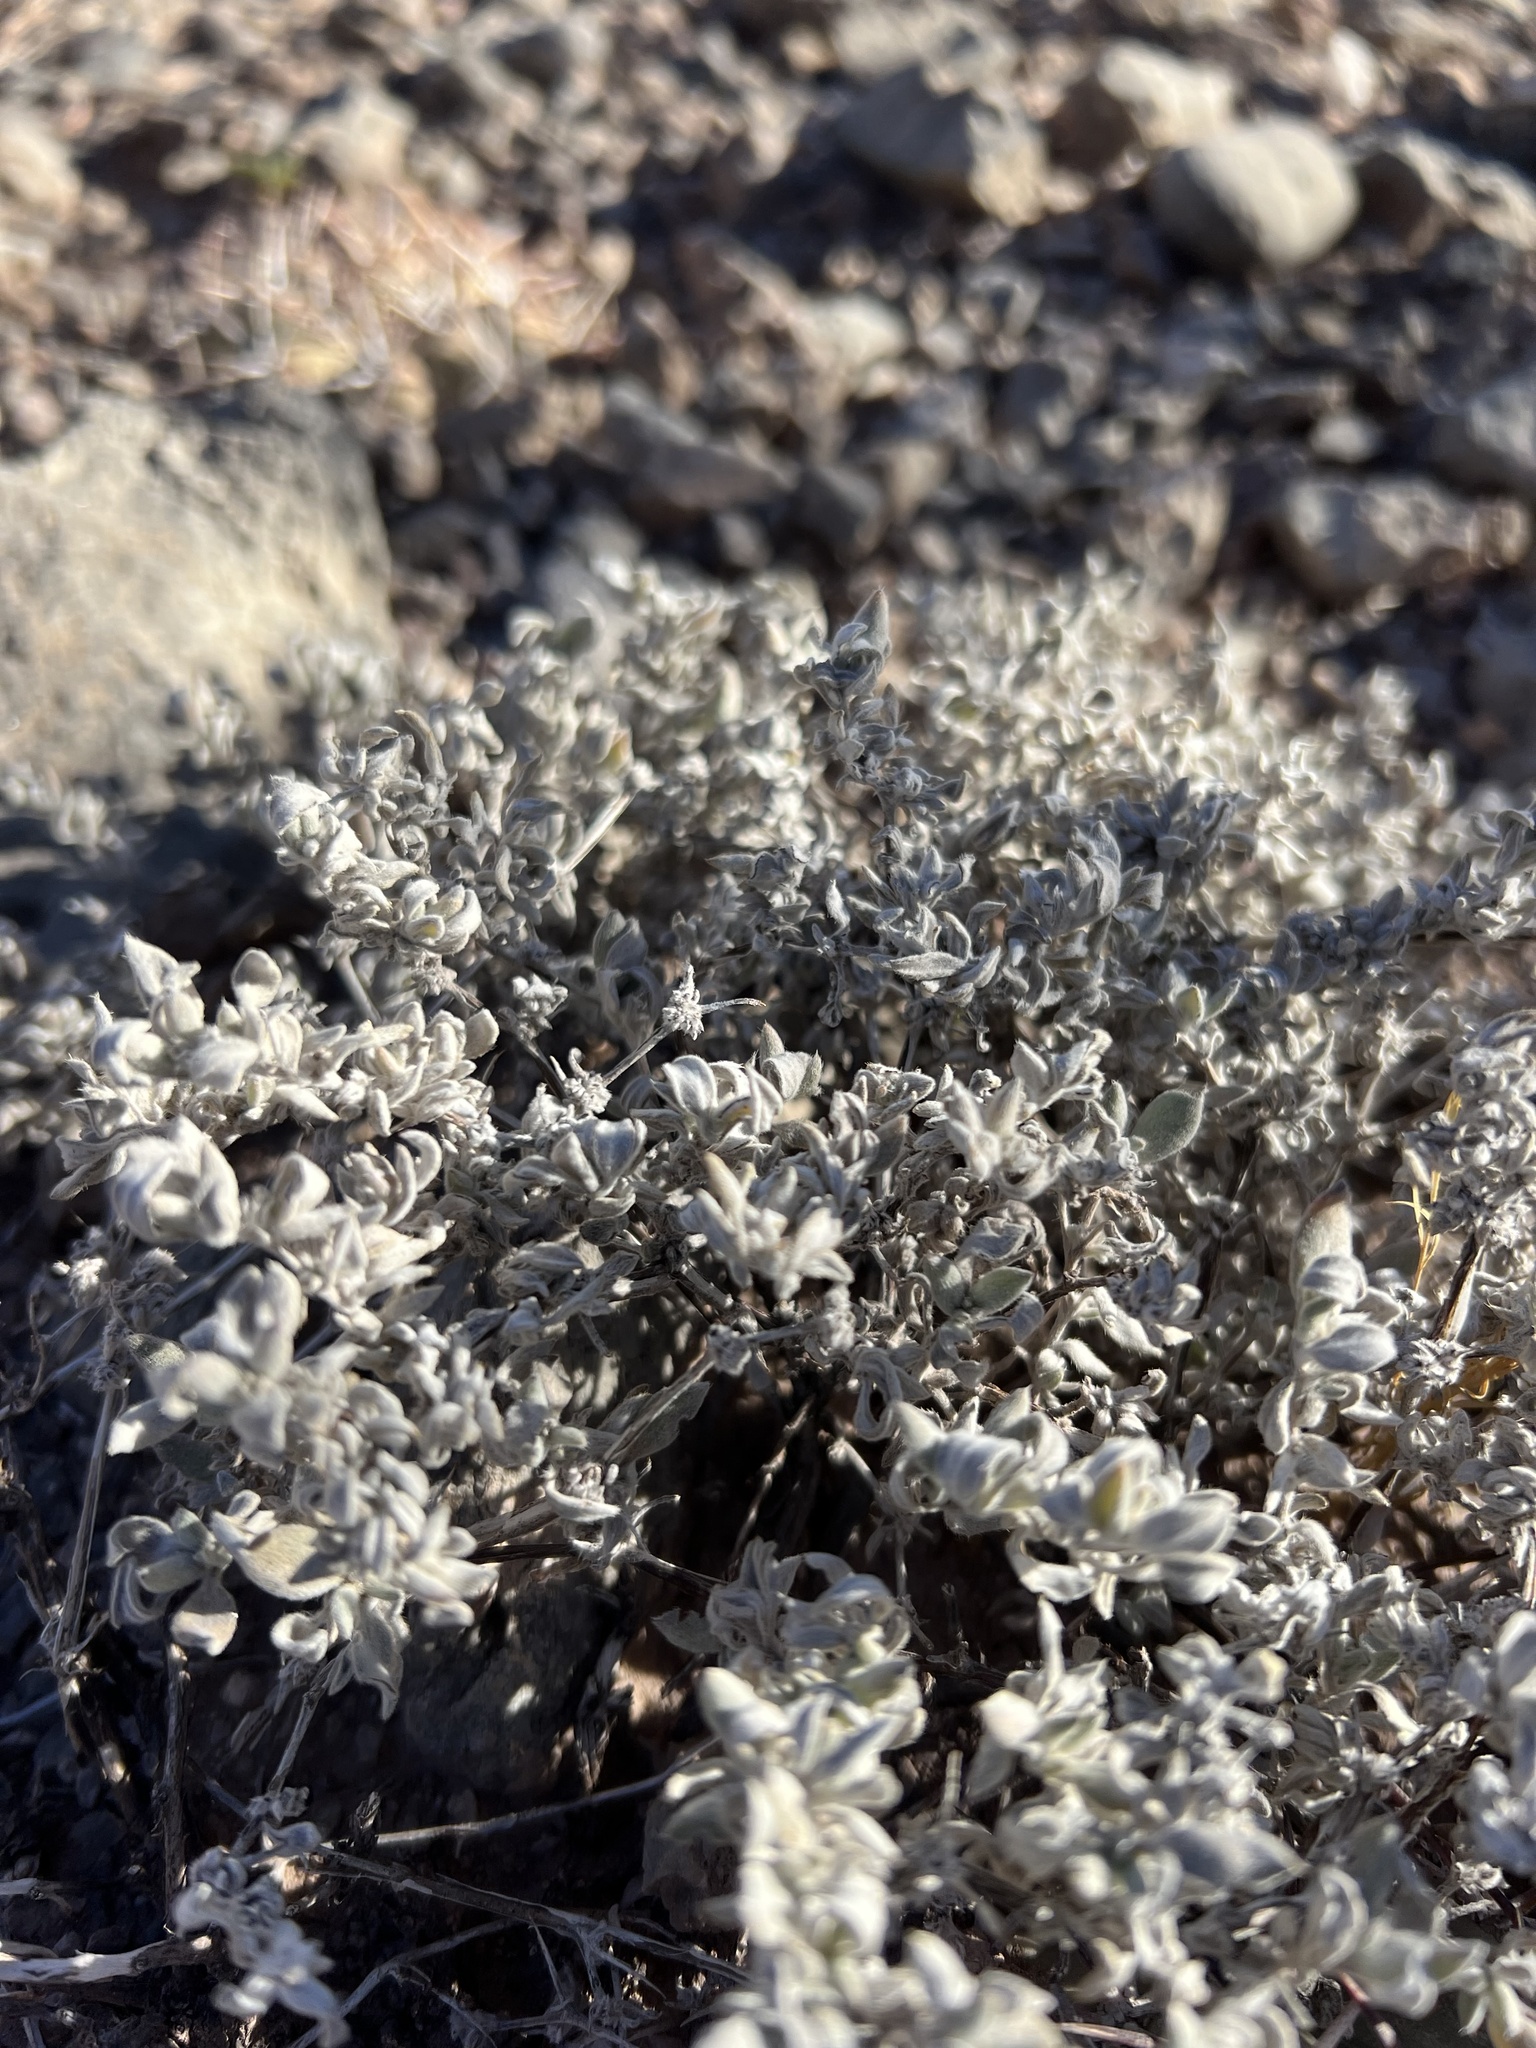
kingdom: Plantae
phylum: Tracheophyta
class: Magnoliopsida
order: Boraginales
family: Ehretiaceae
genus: Tiquilia
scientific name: Tiquilia canescens
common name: Hairy tiquilia
